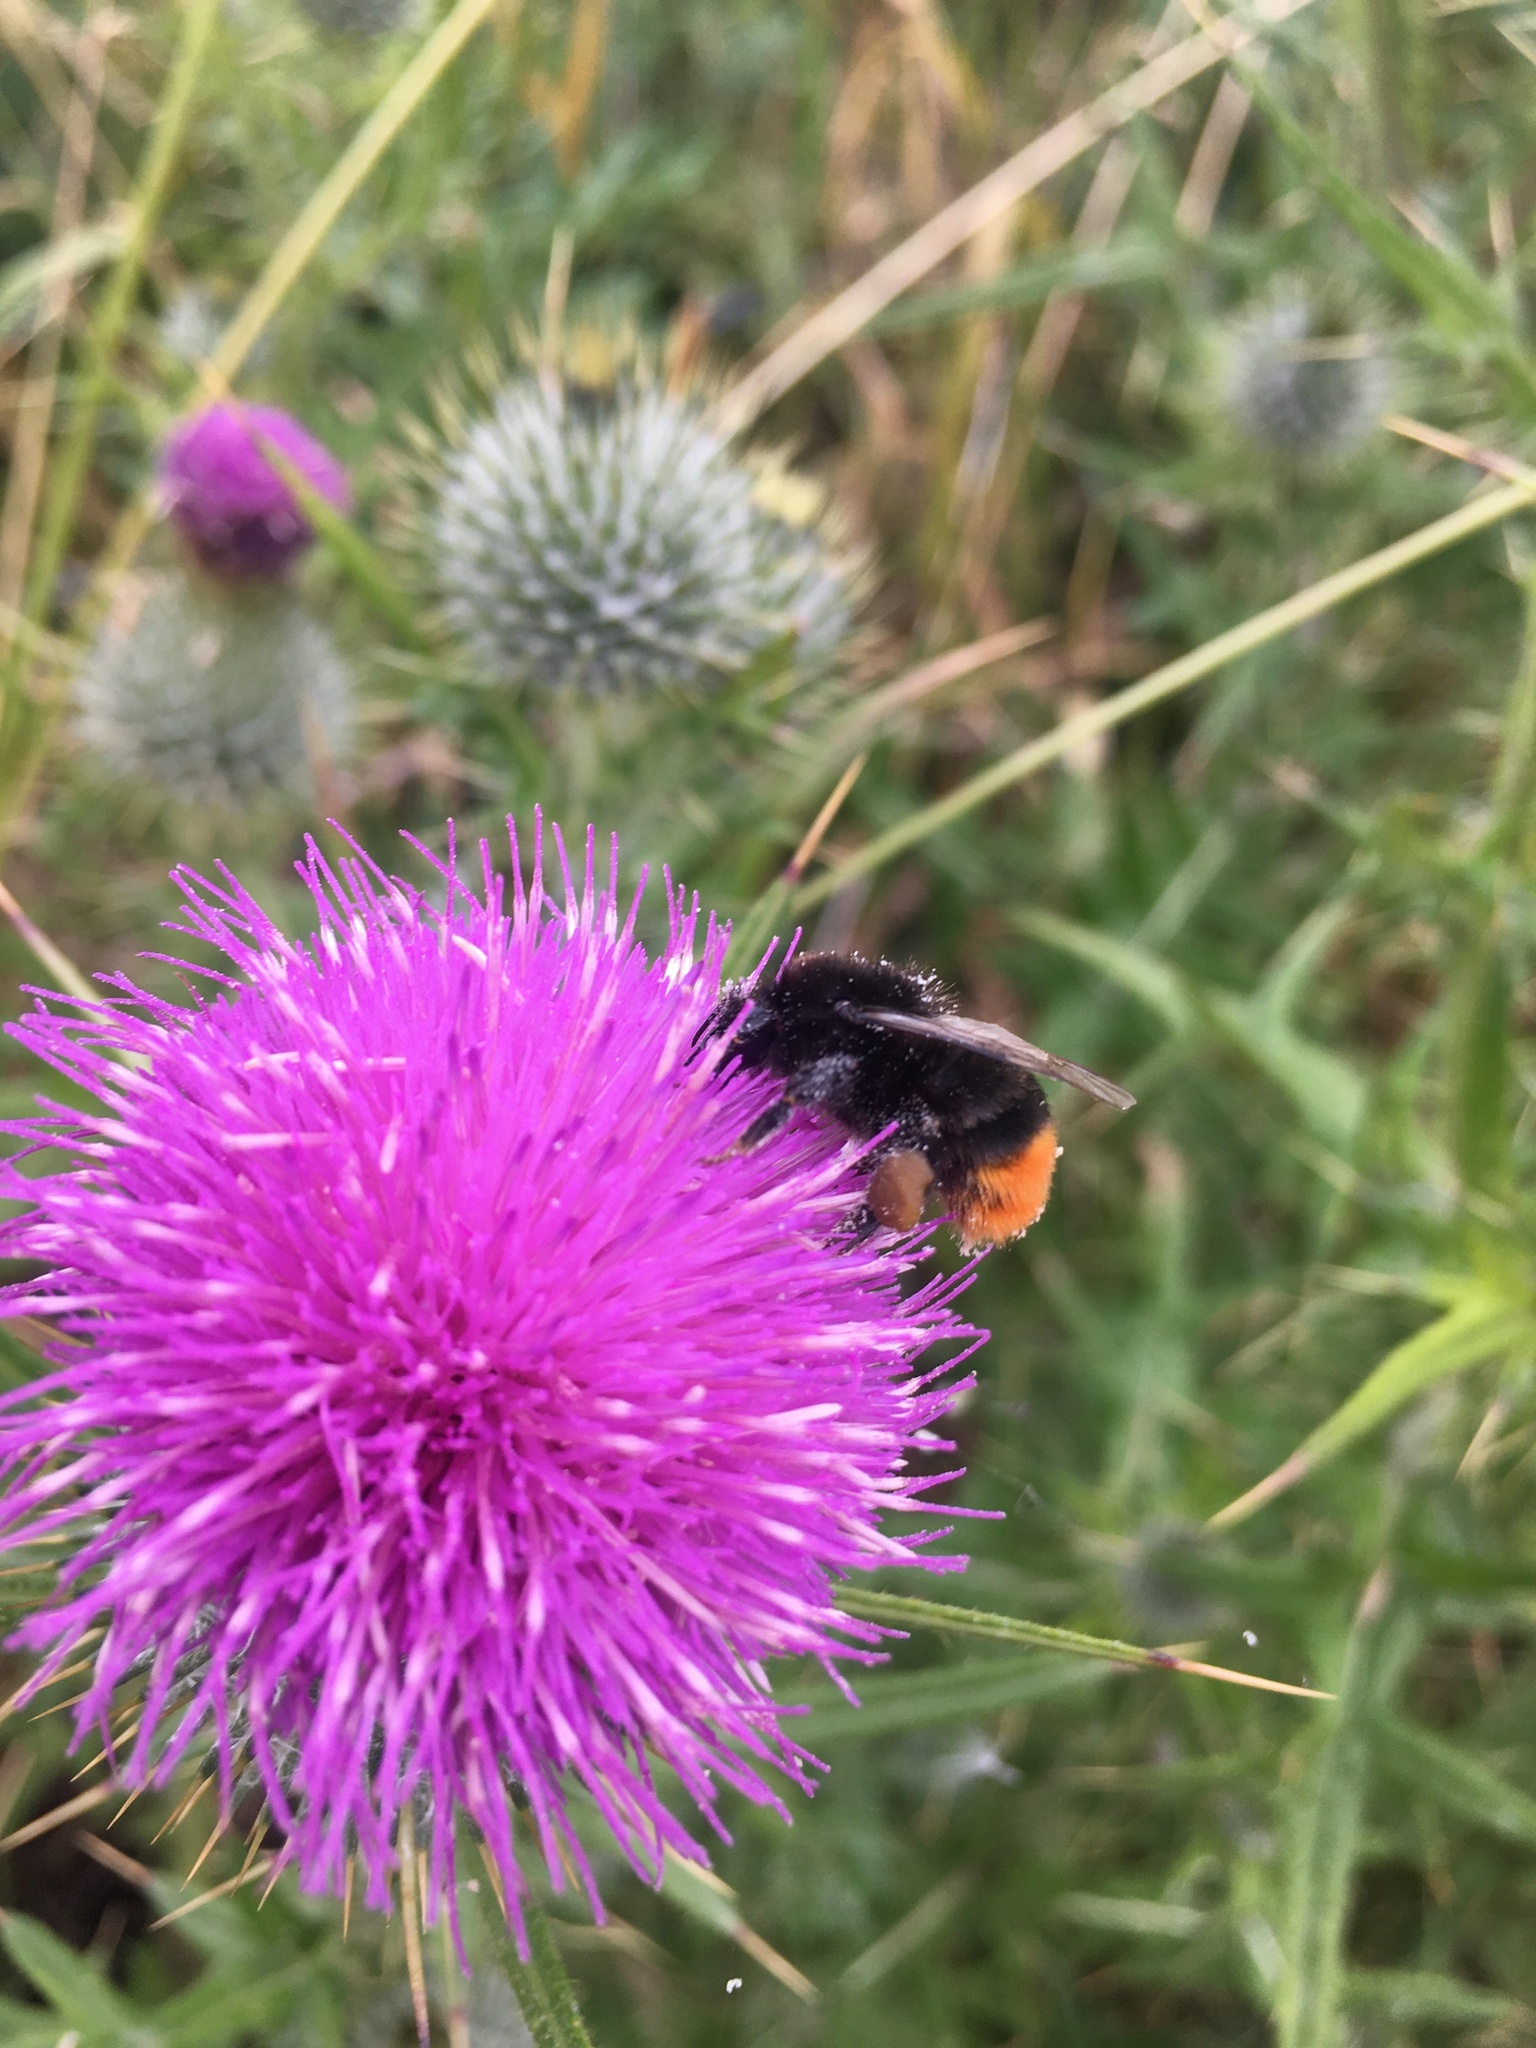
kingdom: Animalia
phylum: Arthropoda
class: Insecta
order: Hymenoptera
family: Apidae
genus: Bombus
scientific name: Bombus lapidarius
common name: Large red-tailed humble-bee
